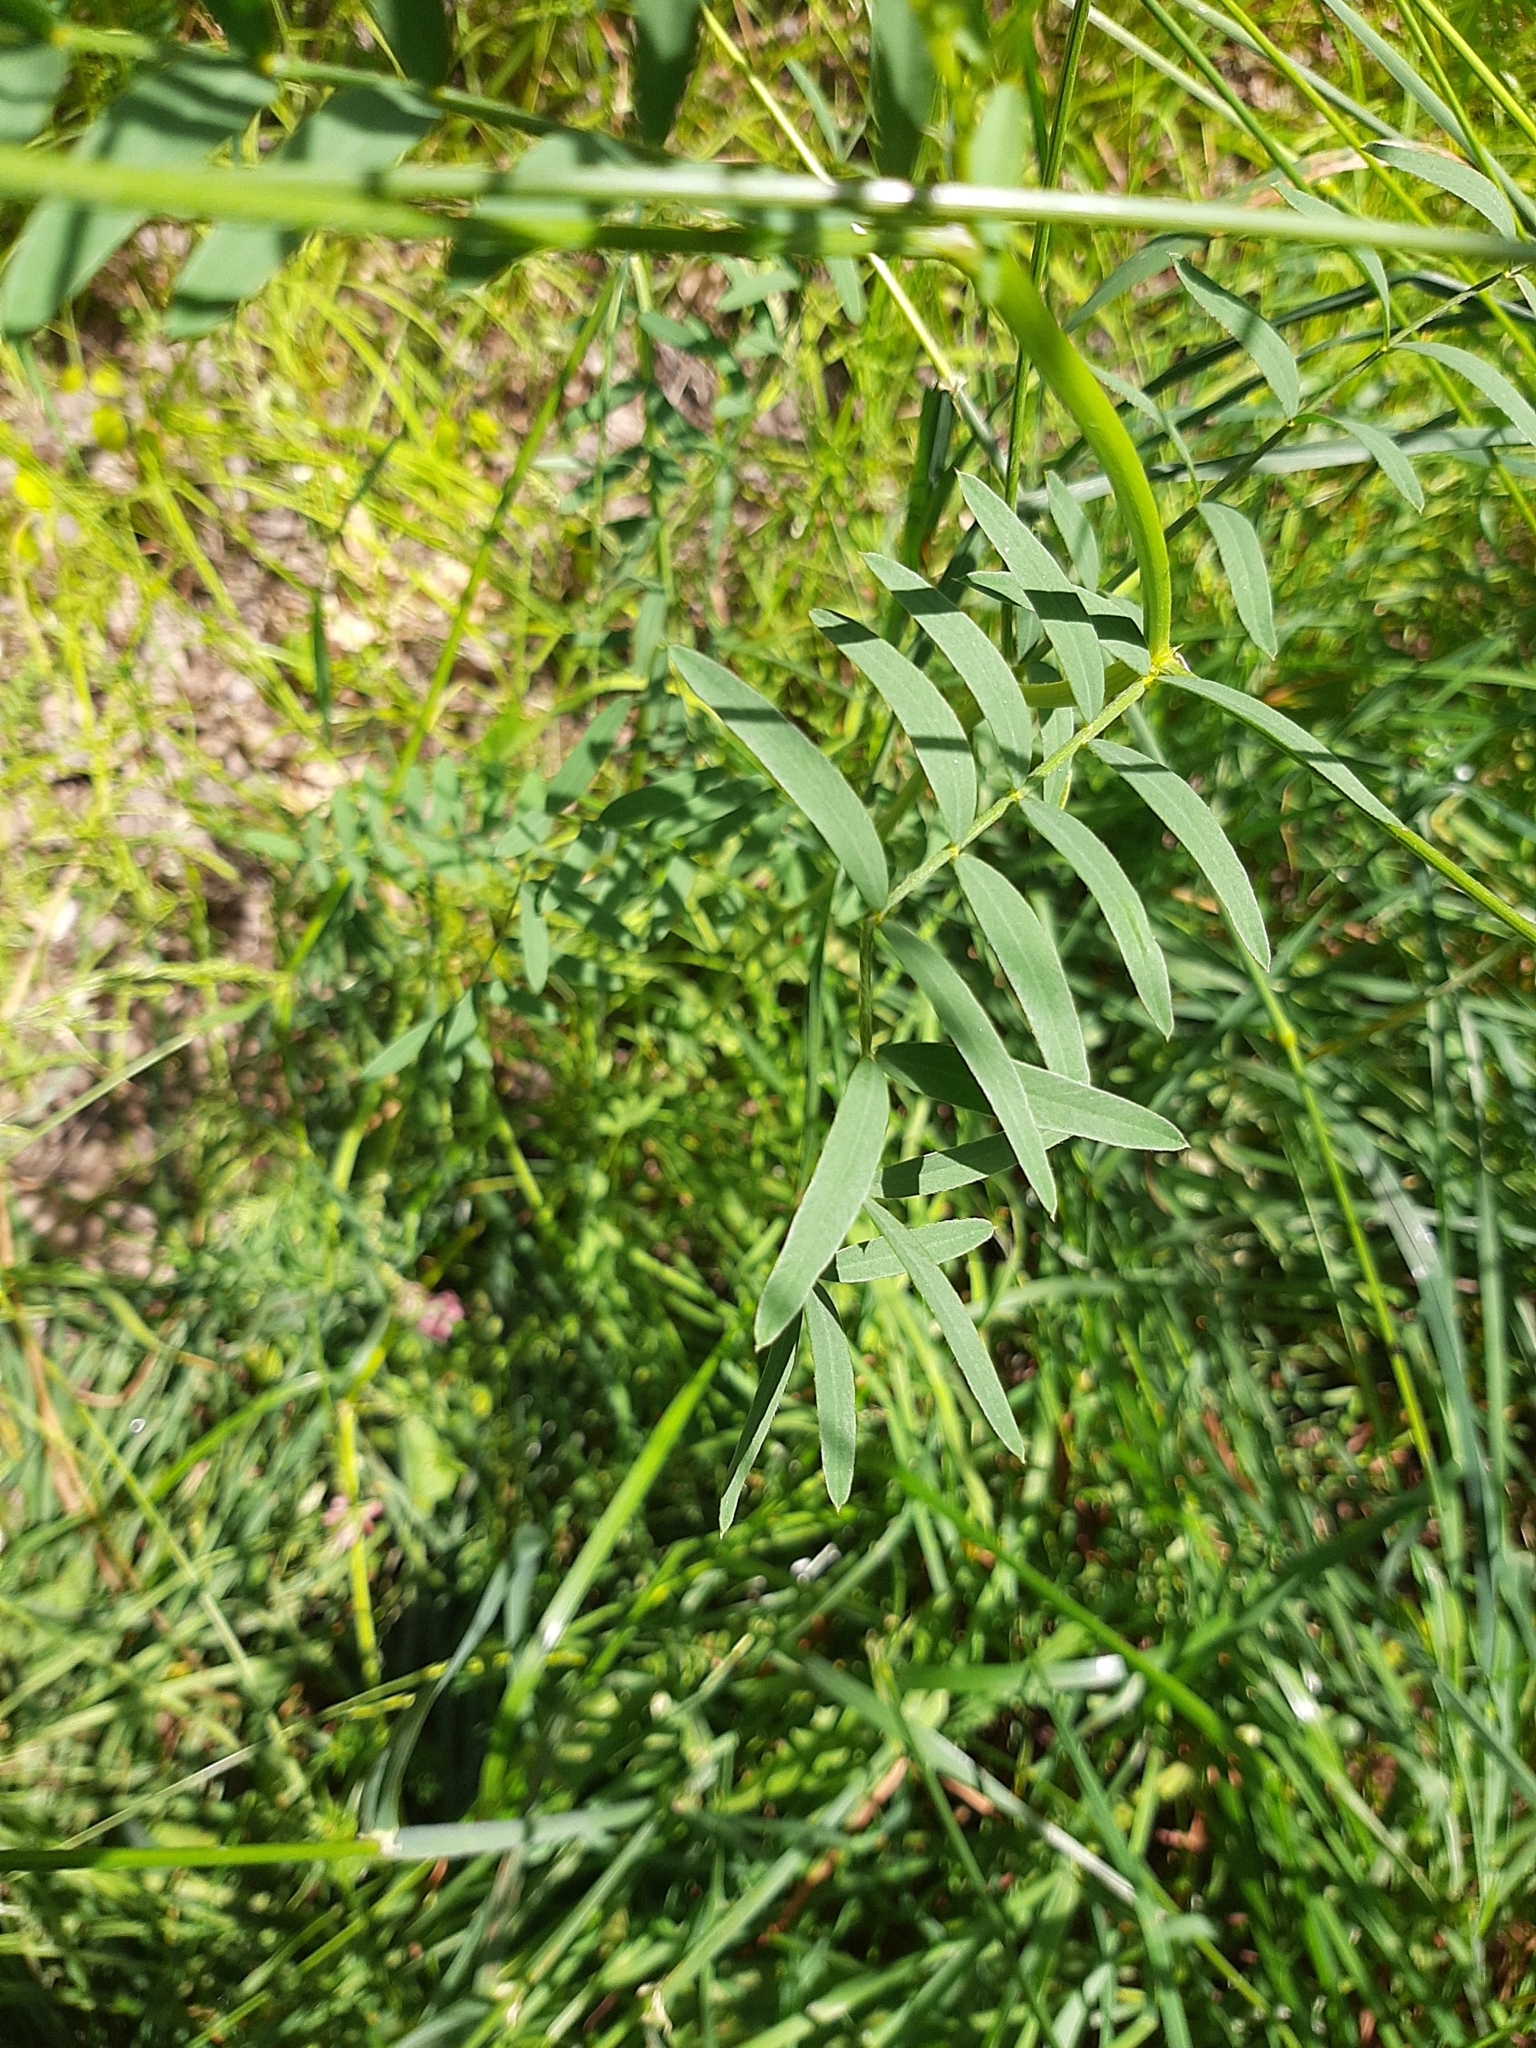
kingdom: Plantae
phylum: Tracheophyta
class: Magnoliopsida
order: Fabales
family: Fabaceae
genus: Onobrychis
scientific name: Onobrychis arenaria
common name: Sand esparcet
